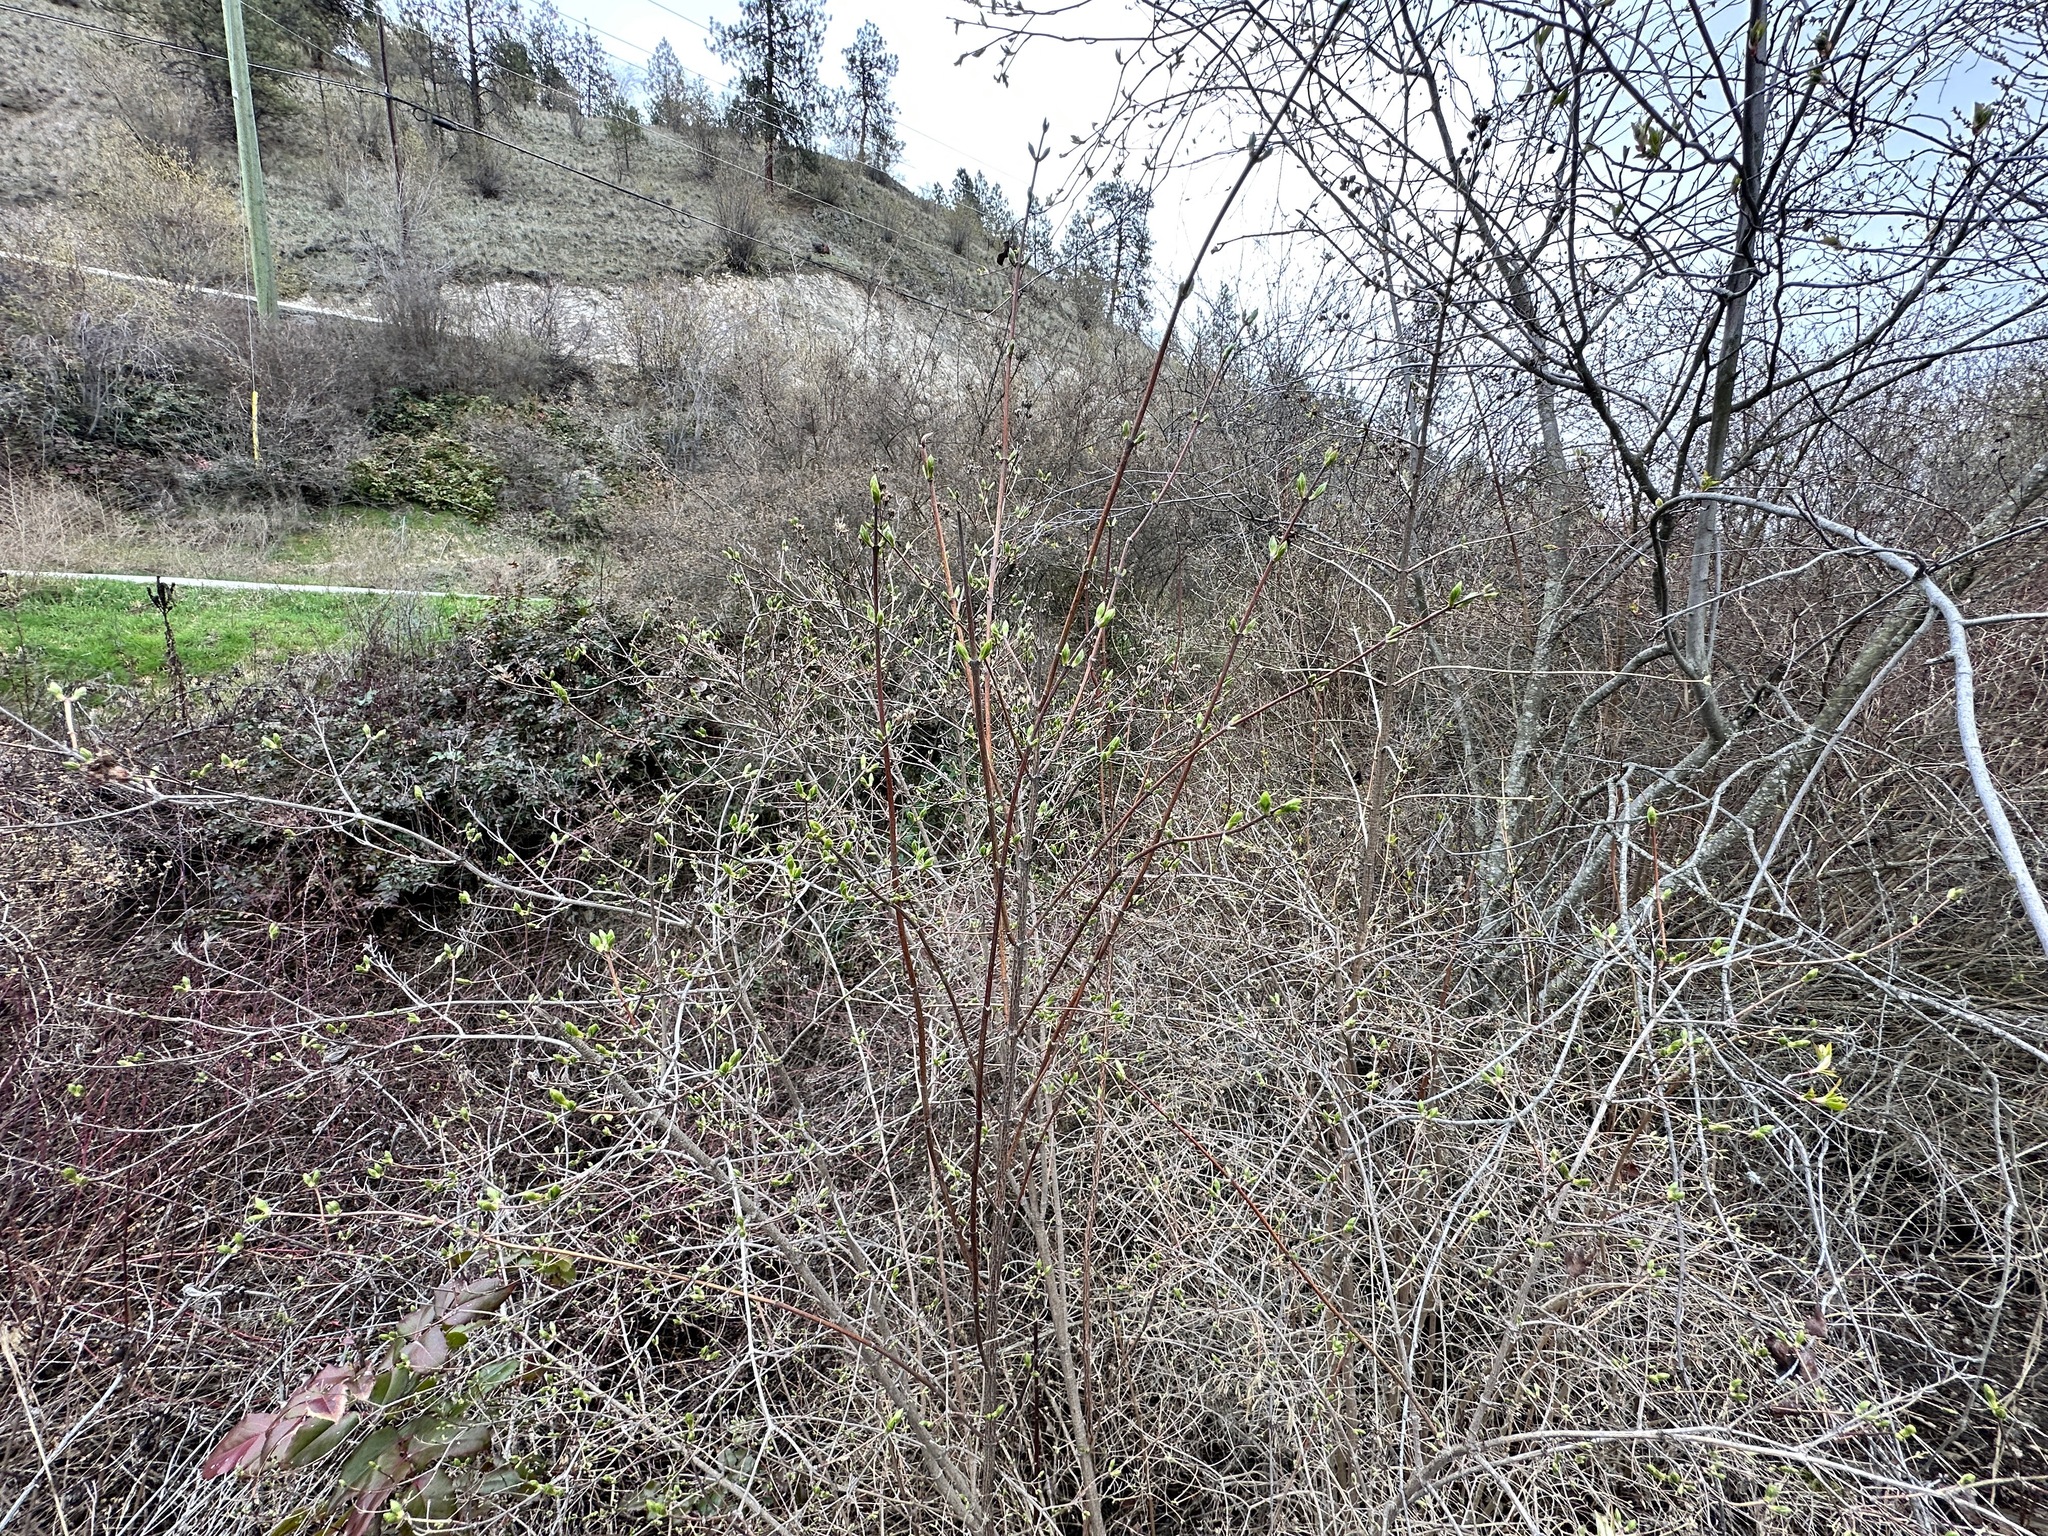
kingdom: Plantae
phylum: Tracheophyta
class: Magnoliopsida
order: Cornales
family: Hydrangeaceae
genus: Philadelphus
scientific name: Philadelphus lewisii
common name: Lewis's mock orange
